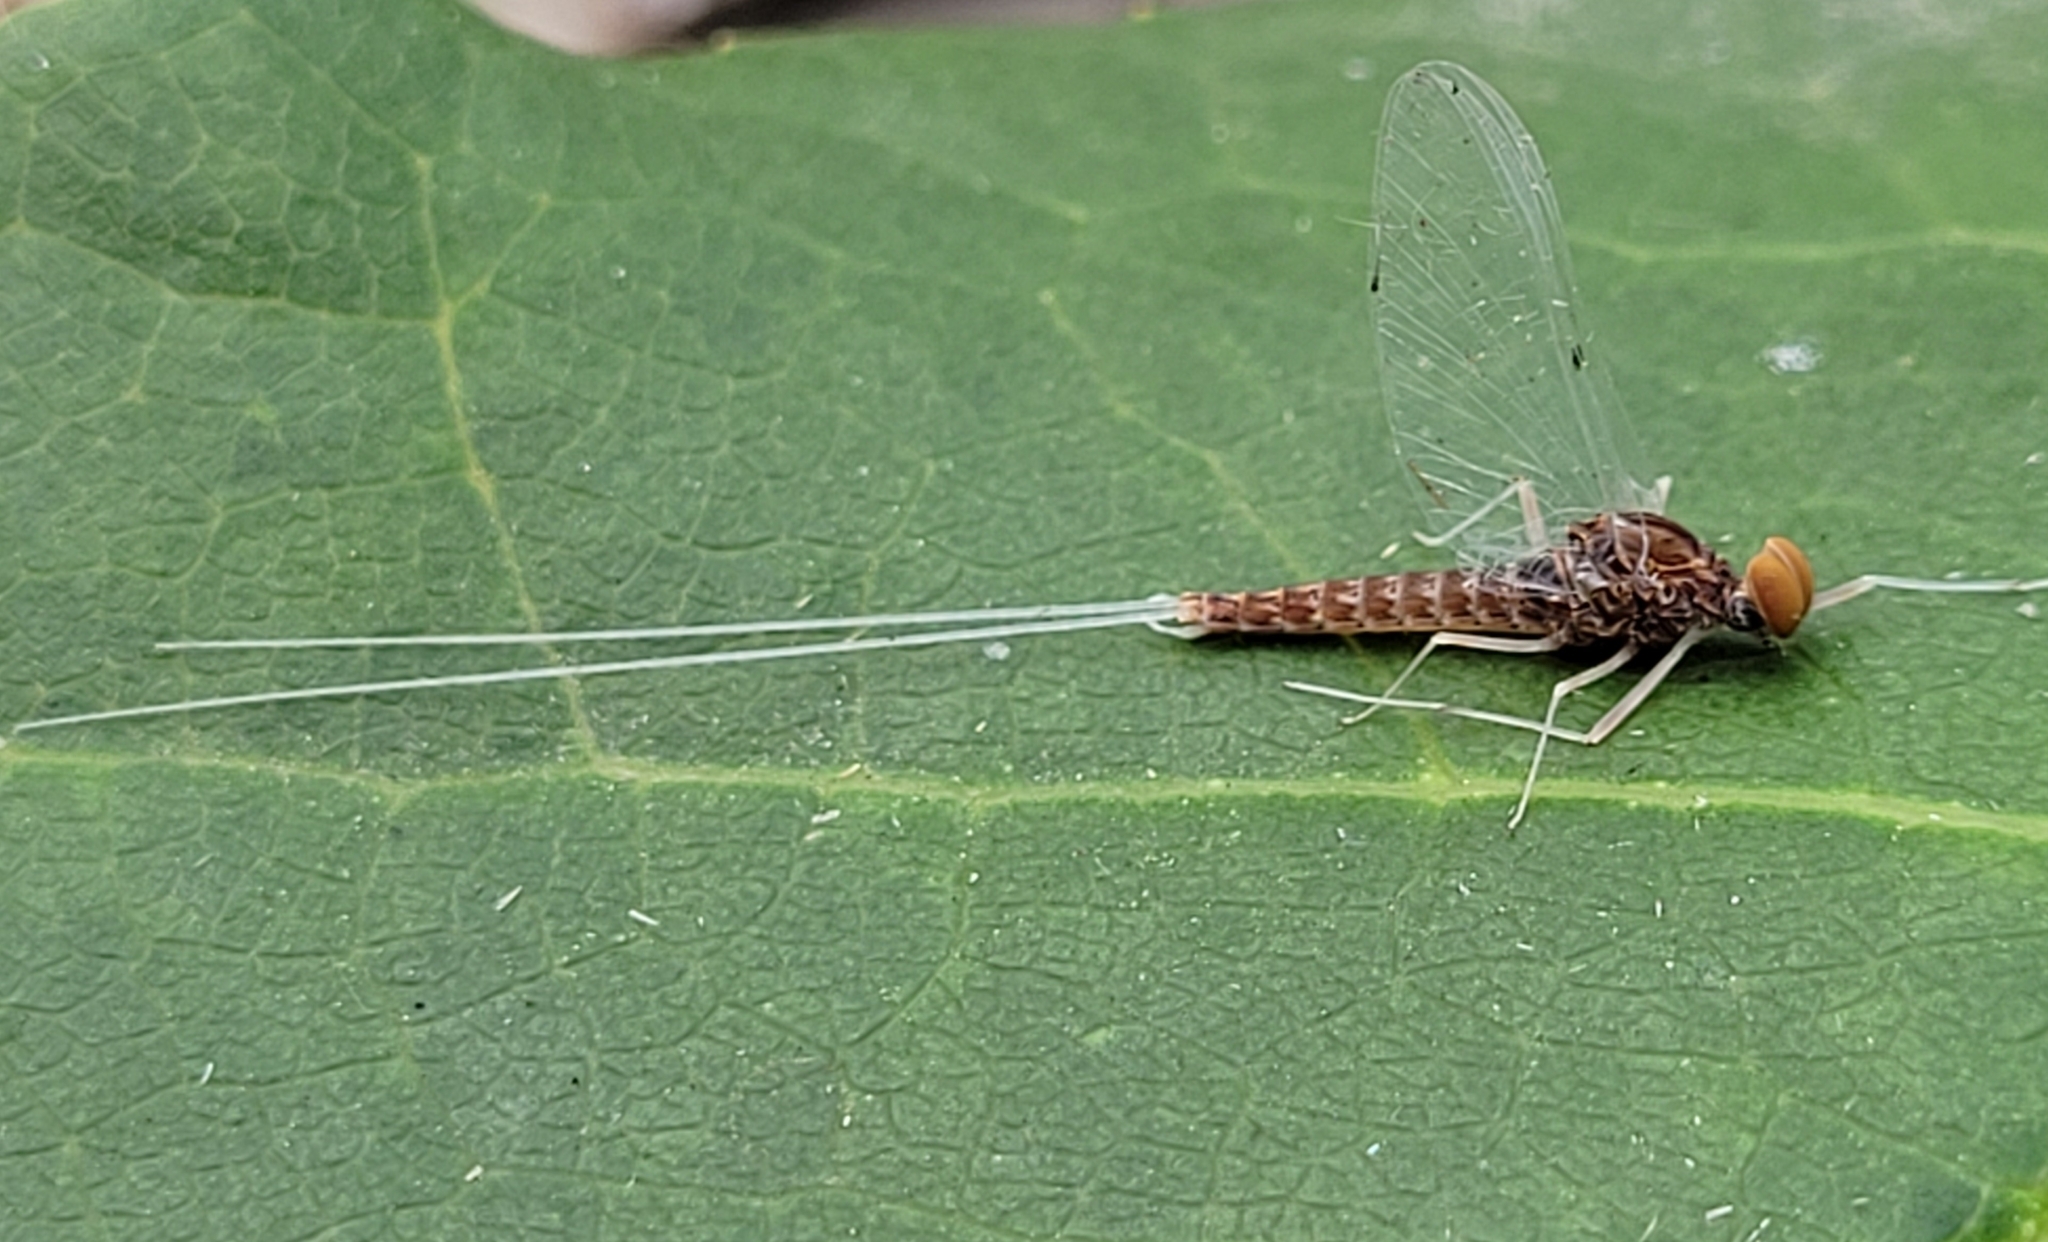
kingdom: Animalia
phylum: Arthropoda
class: Insecta
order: Ephemeroptera
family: Baetidae
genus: Baetis
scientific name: Baetis bicaudatus
